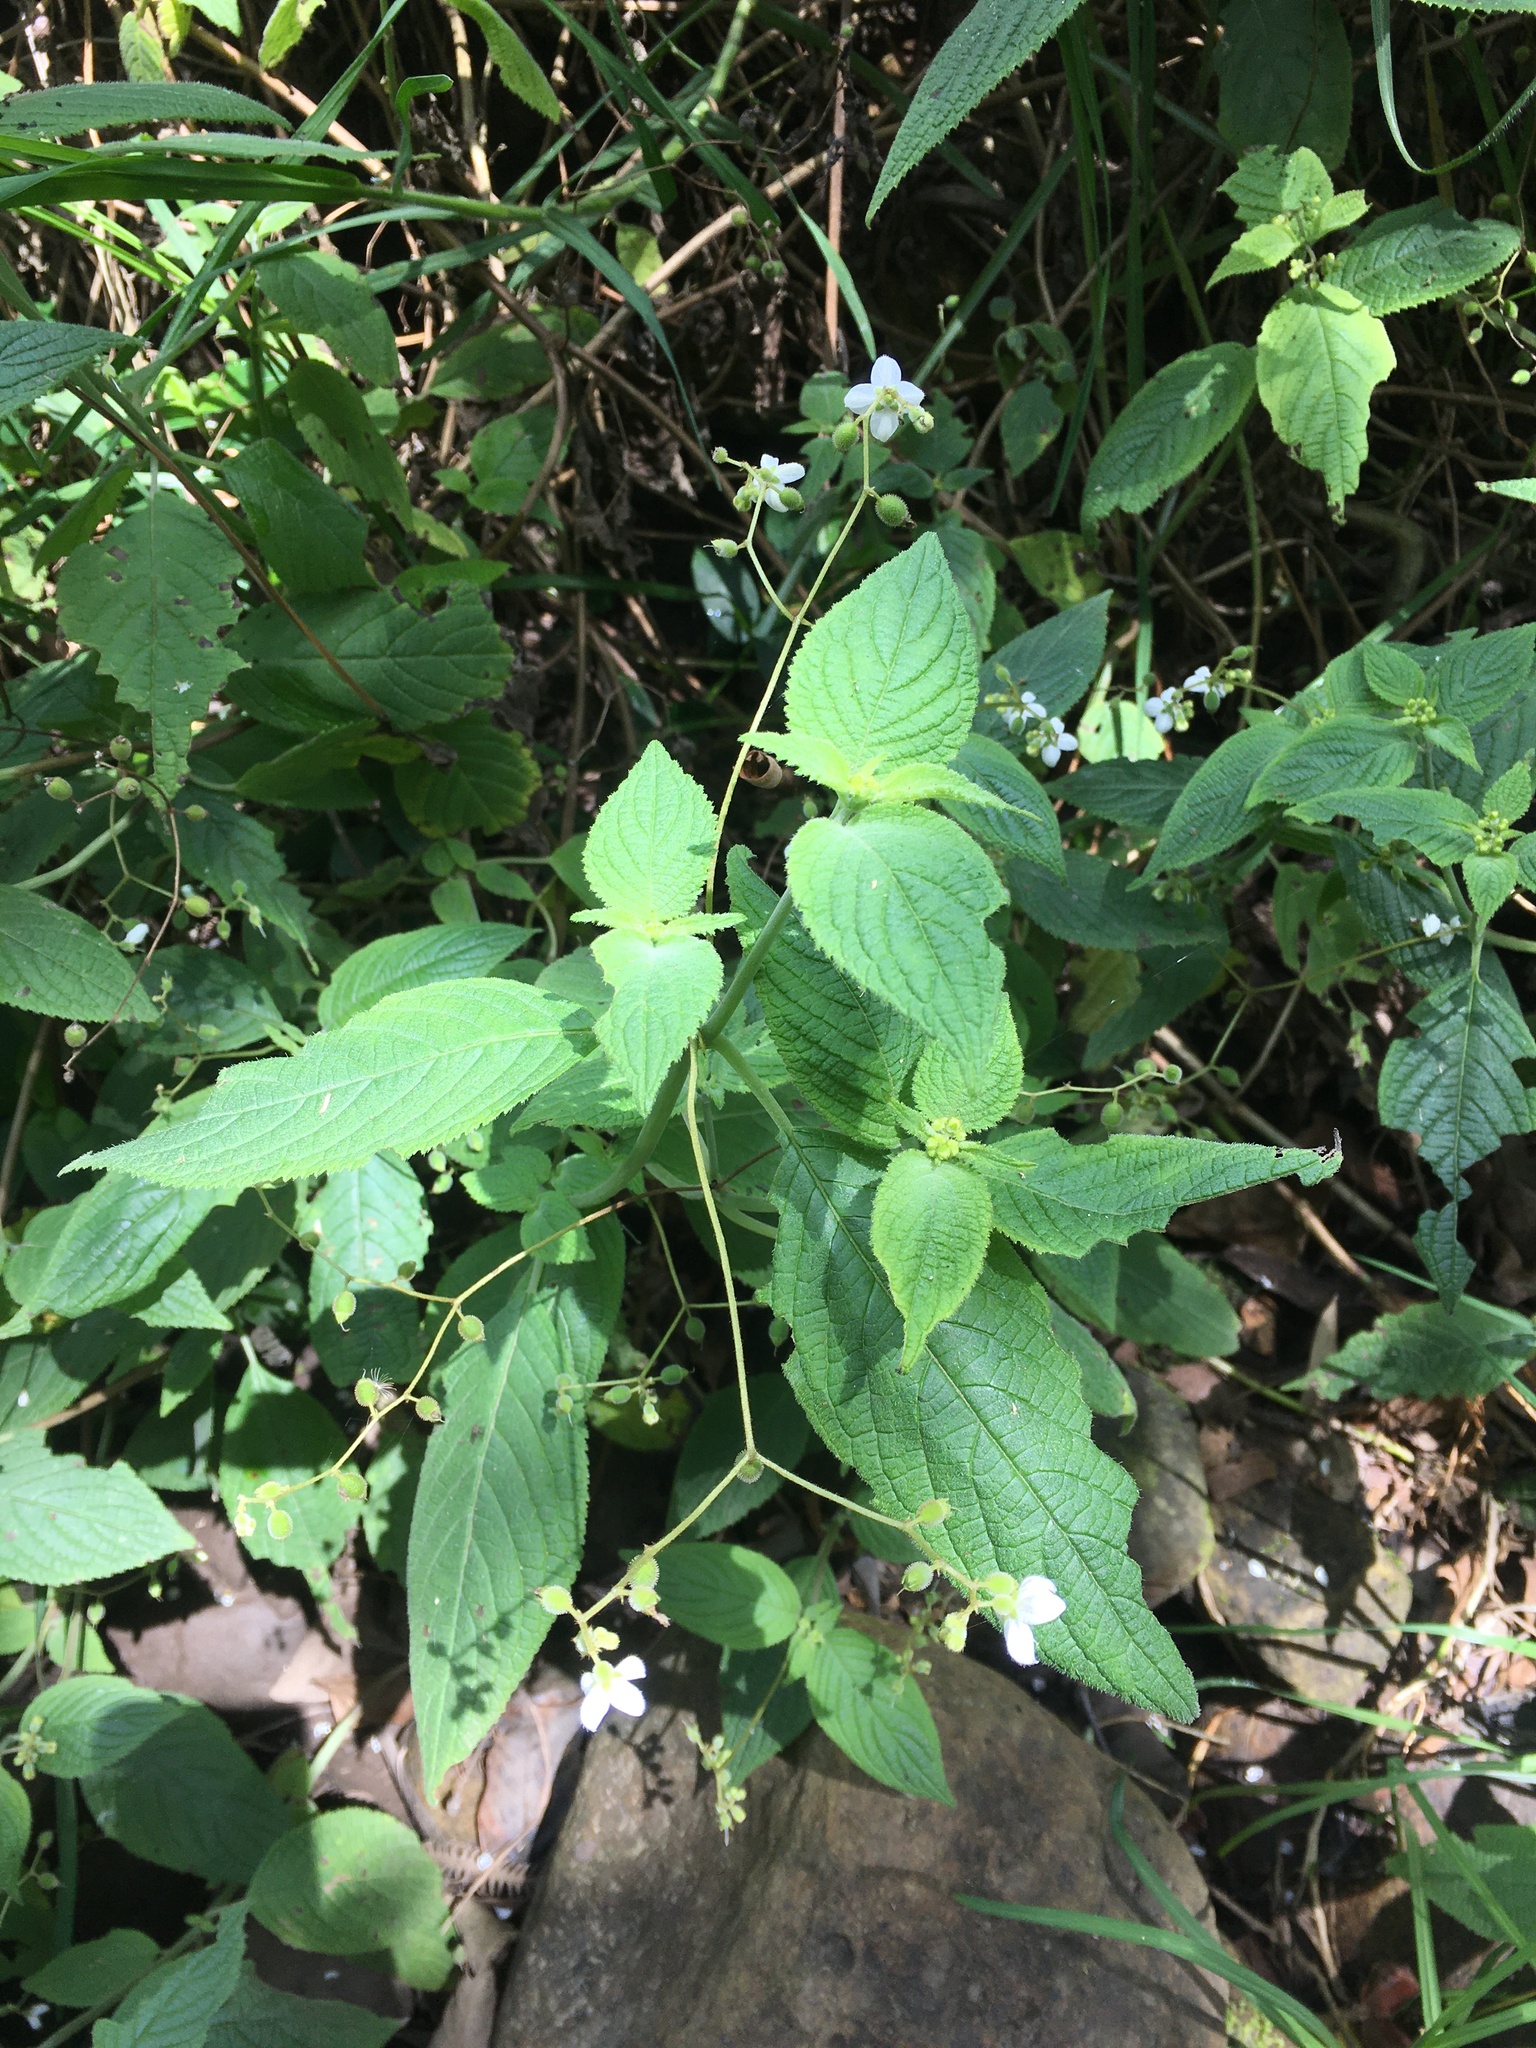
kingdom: Plantae
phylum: Tracheophyta
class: Magnoliopsida
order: Cornales
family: Loasaceae
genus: Klaprothia
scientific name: Klaprothia mentzelioides
